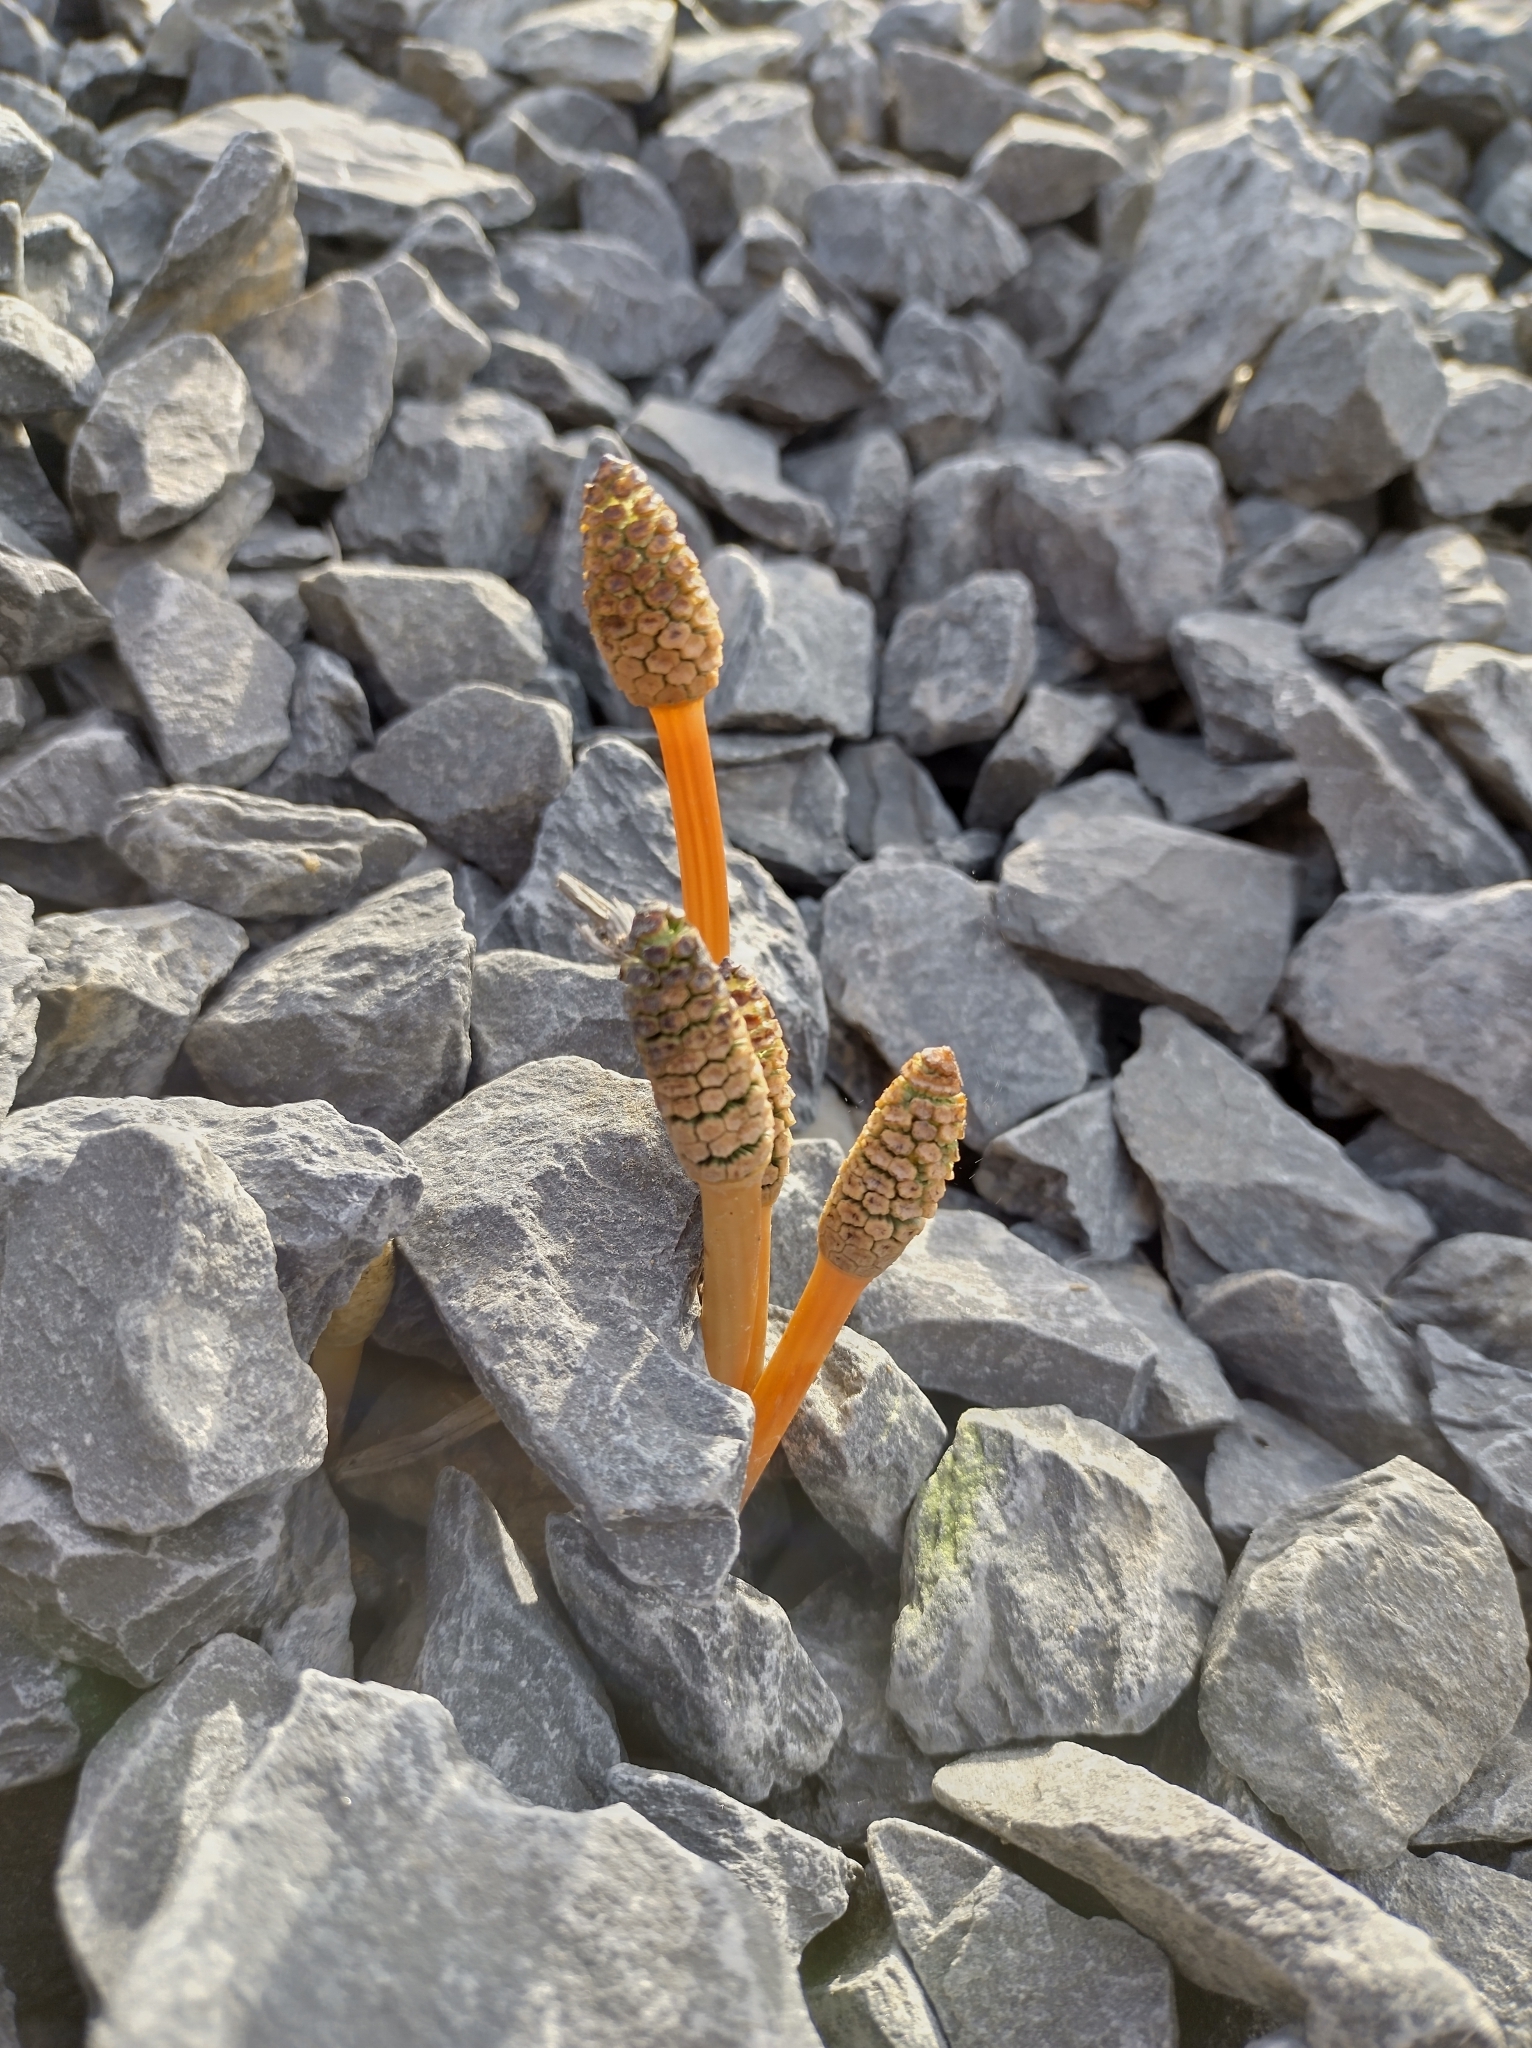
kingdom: Plantae
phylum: Tracheophyta
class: Polypodiopsida
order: Equisetales
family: Equisetaceae
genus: Equisetum
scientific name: Equisetum arvense
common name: Field horsetail
